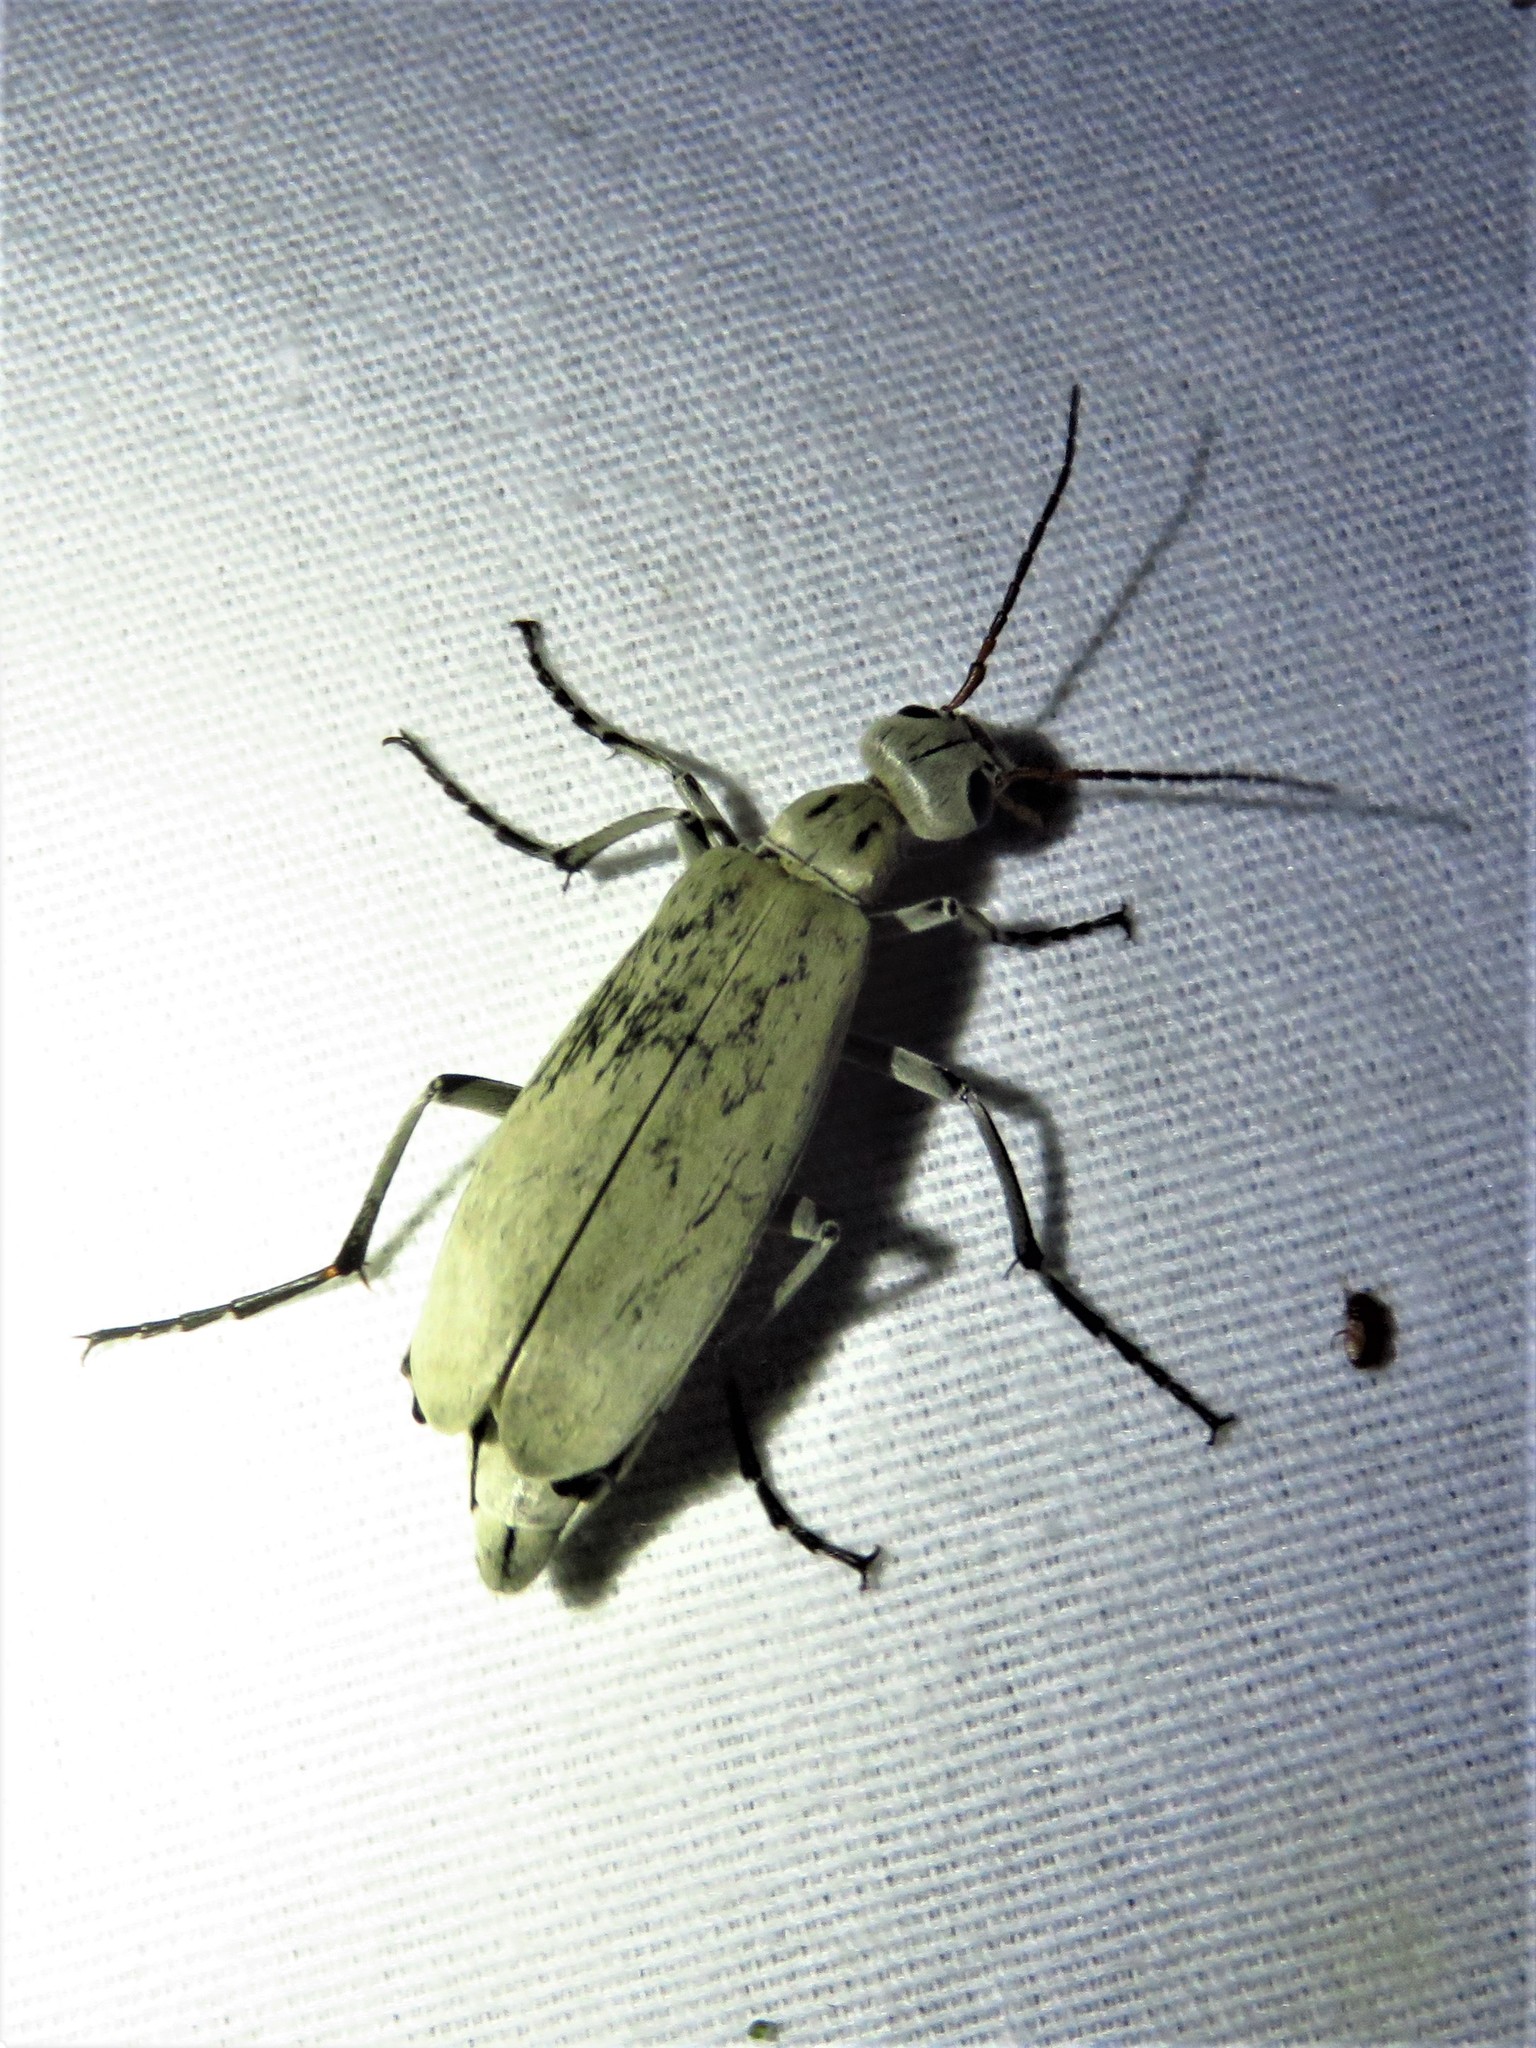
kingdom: Animalia
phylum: Arthropoda
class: Insecta
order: Coleoptera
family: Meloidae
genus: Epicauta
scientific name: Epicauta albida
